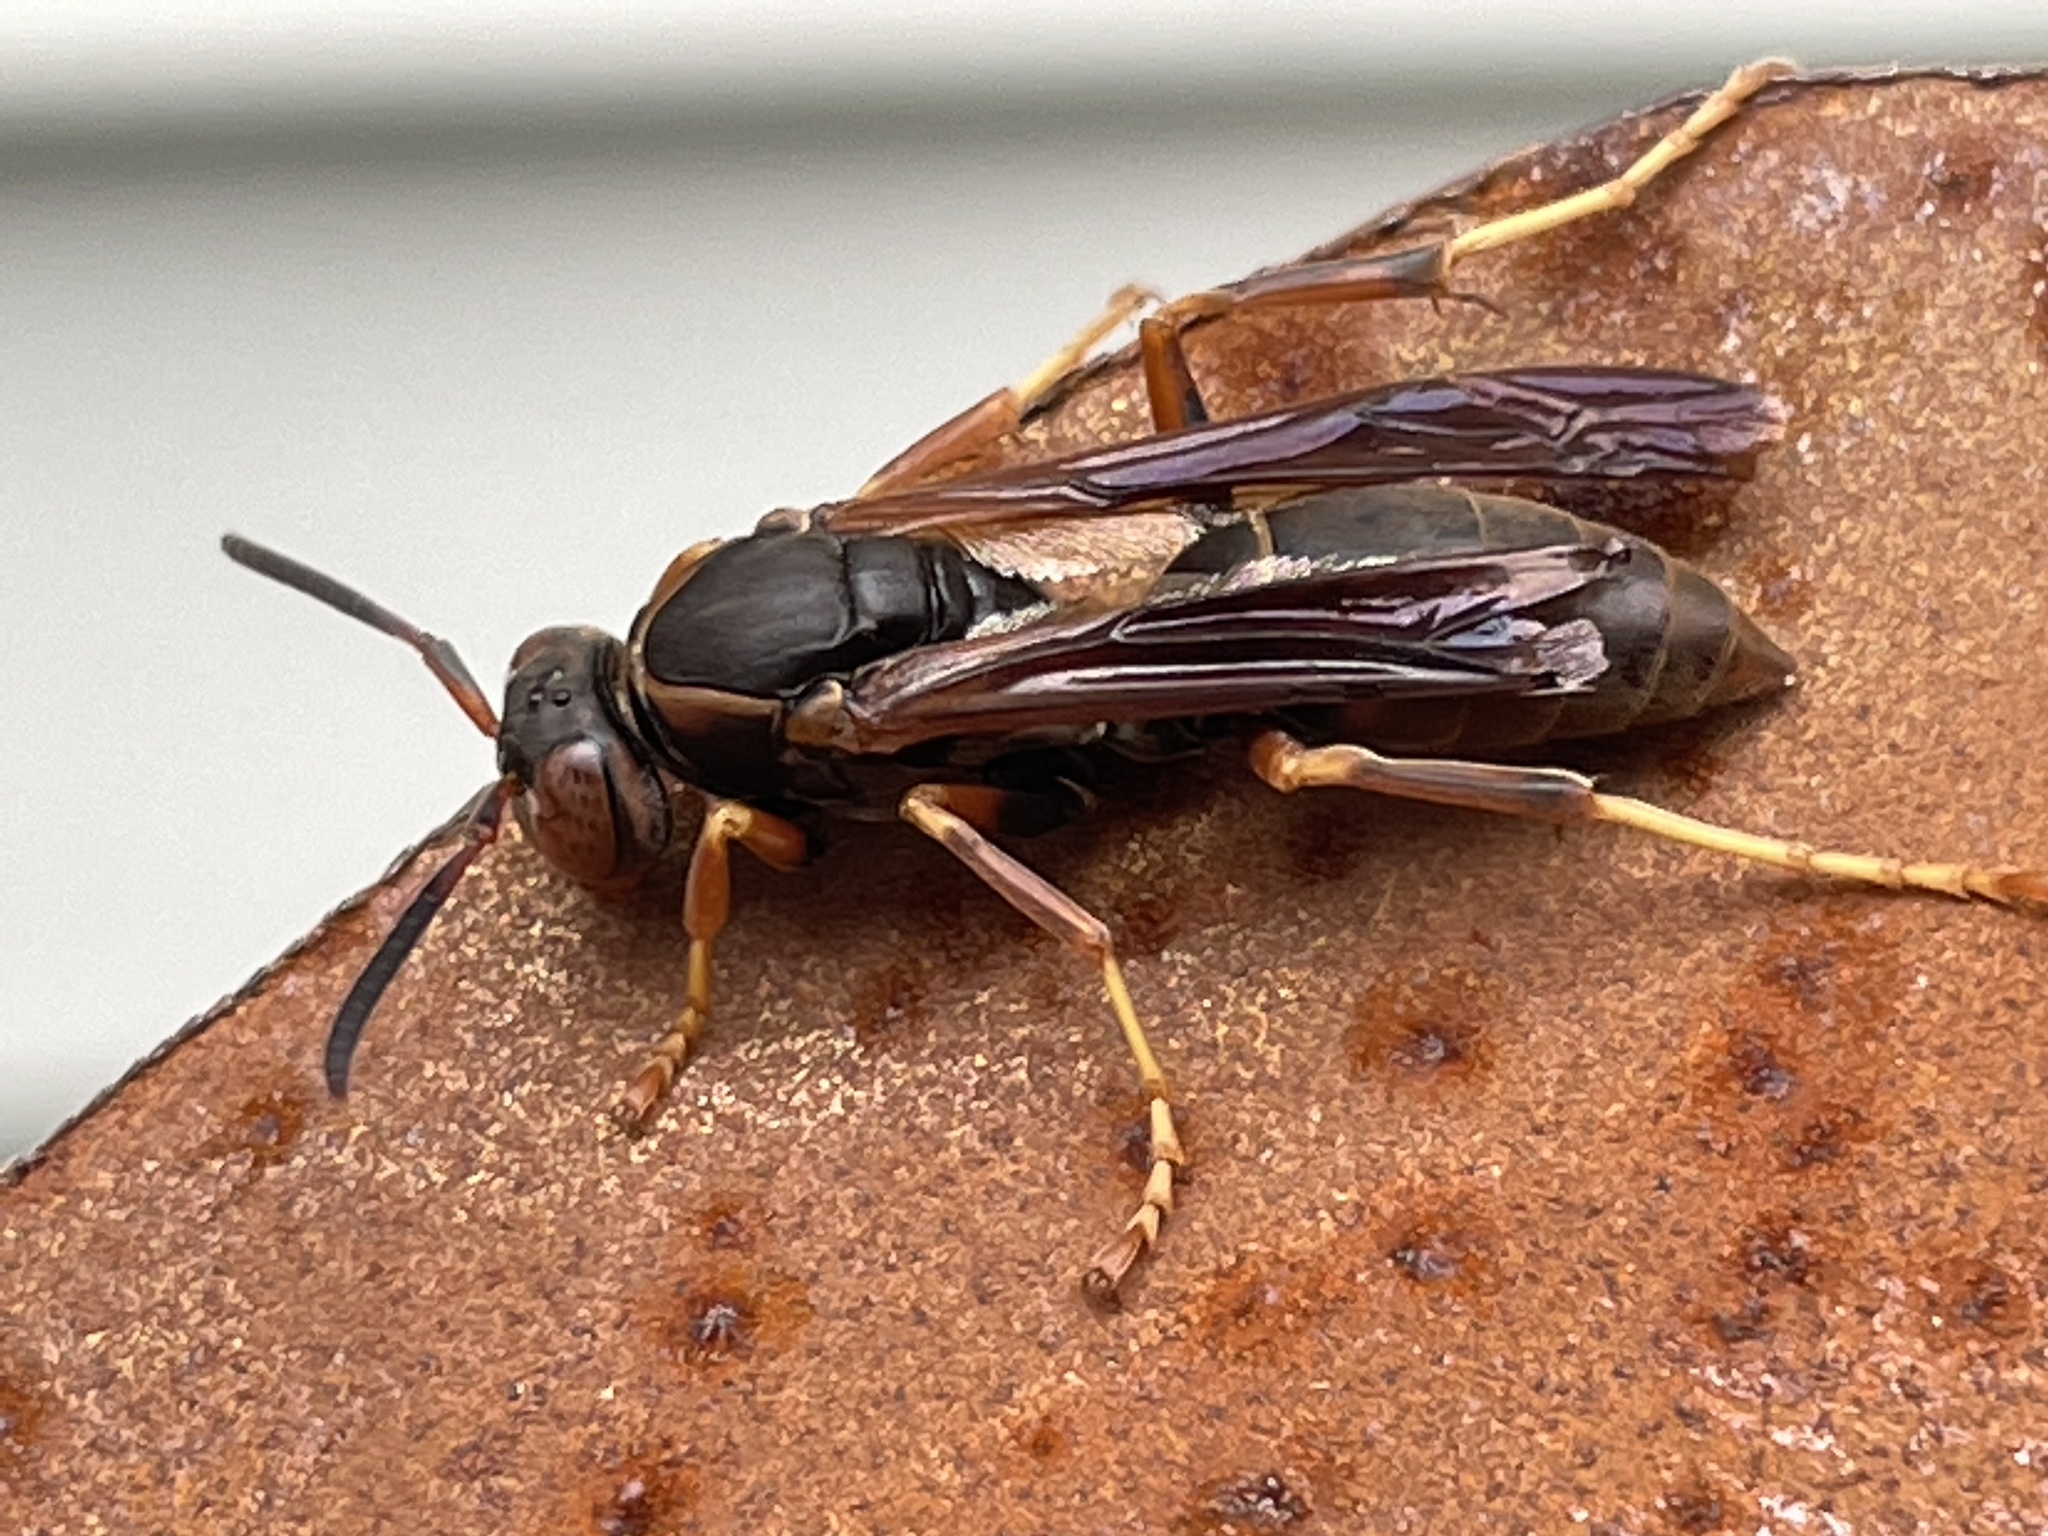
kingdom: Animalia
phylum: Arthropoda
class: Insecta
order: Hymenoptera
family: Eumenidae
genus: Polistes
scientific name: Polistes fuscatus
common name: Dark paper wasp
